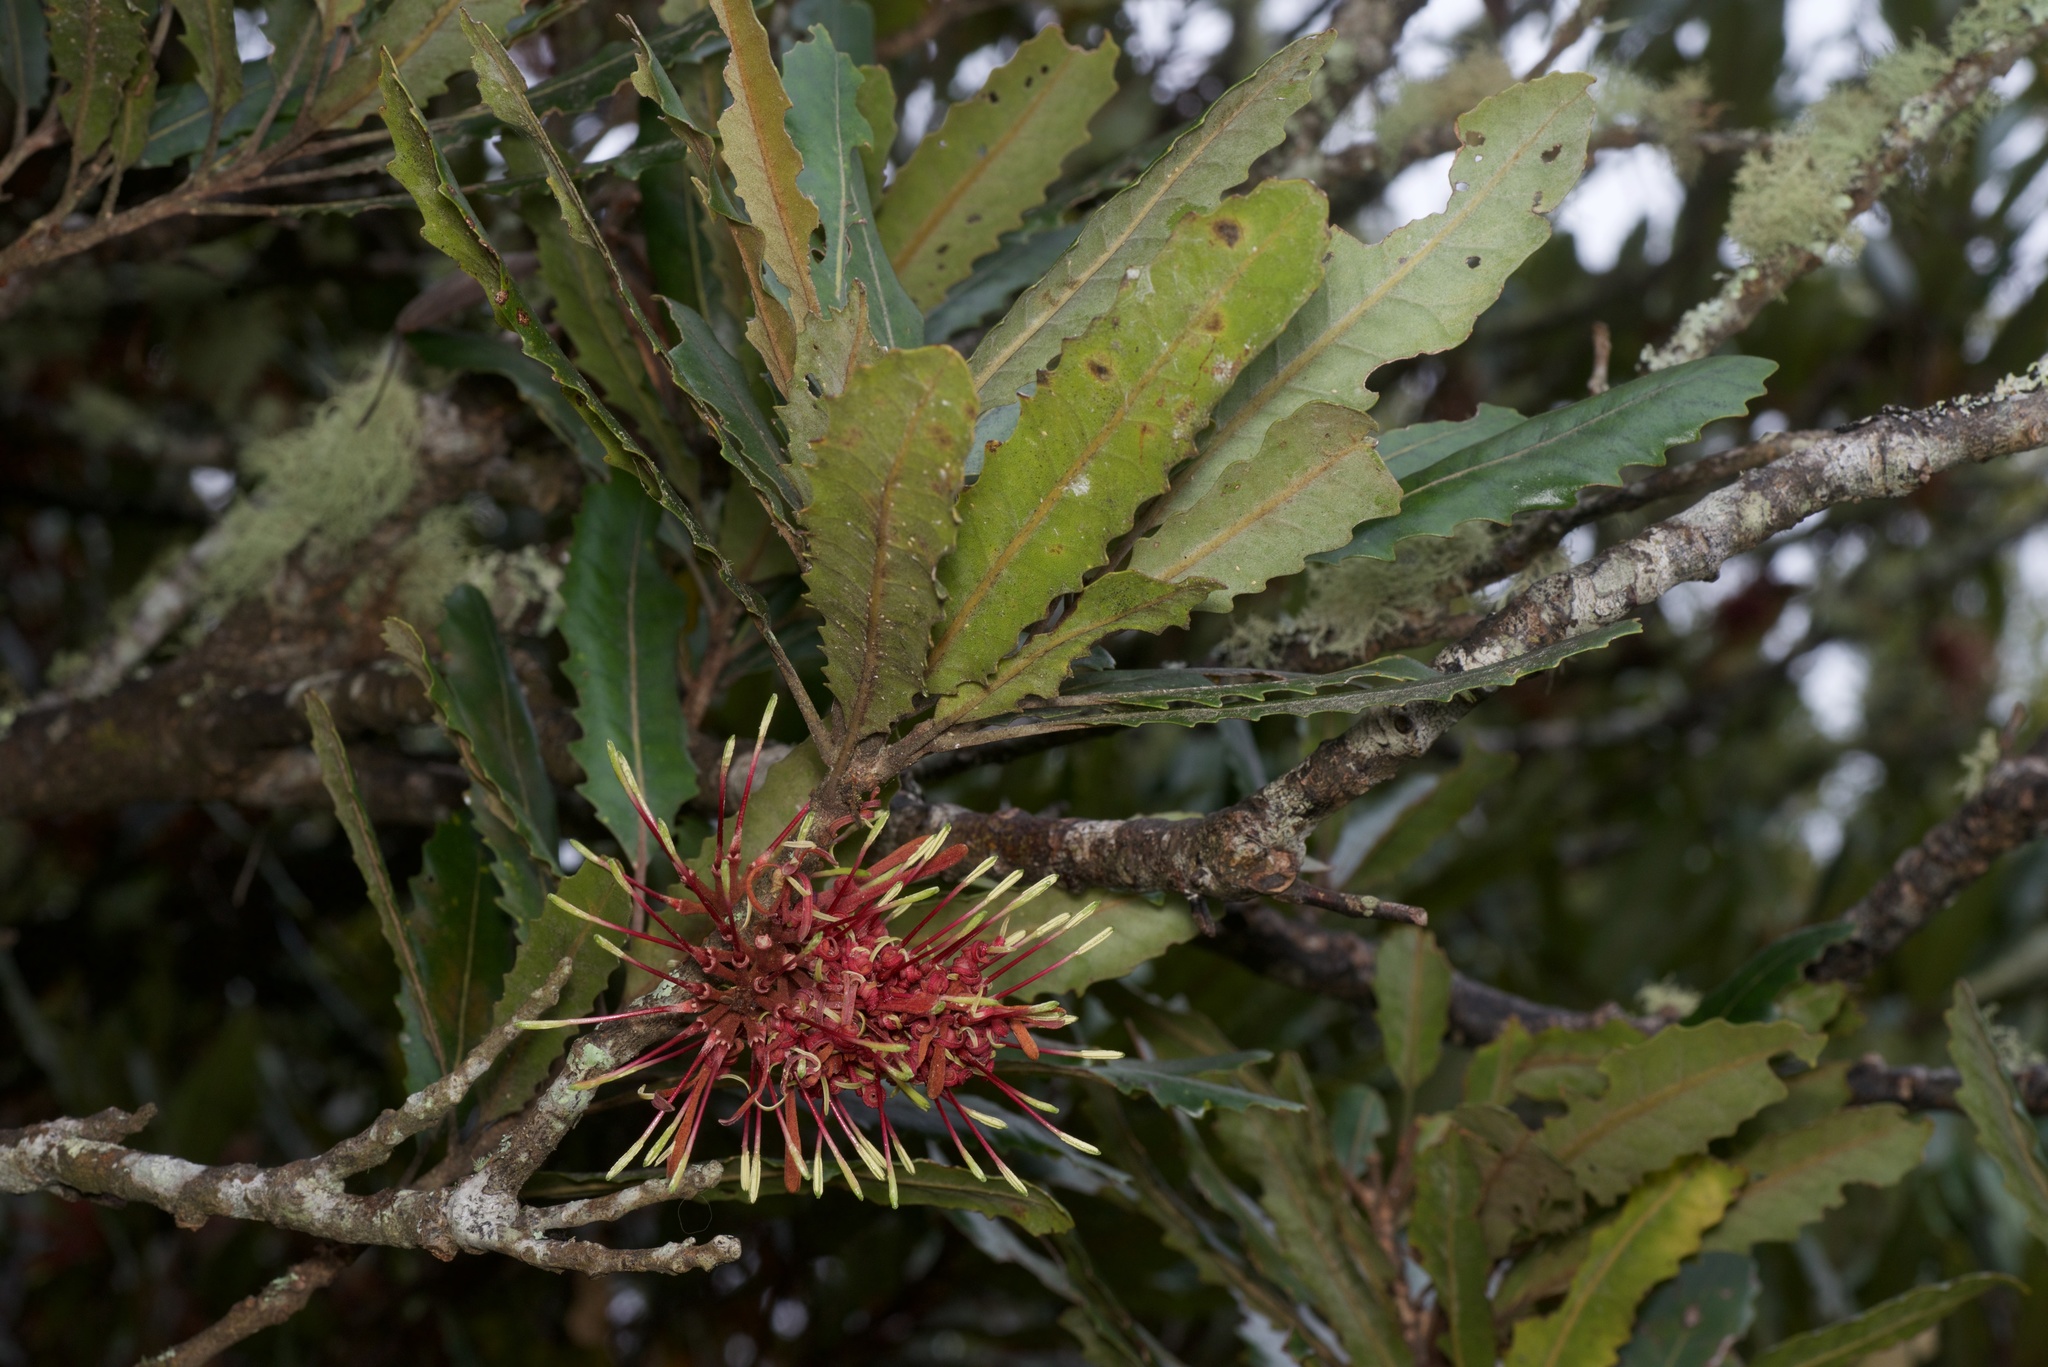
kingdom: Plantae
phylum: Tracheophyta
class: Magnoliopsida
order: Proteales
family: Proteaceae
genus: Knightia
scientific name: Knightia excelsa
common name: New zealand-honeysuckle
